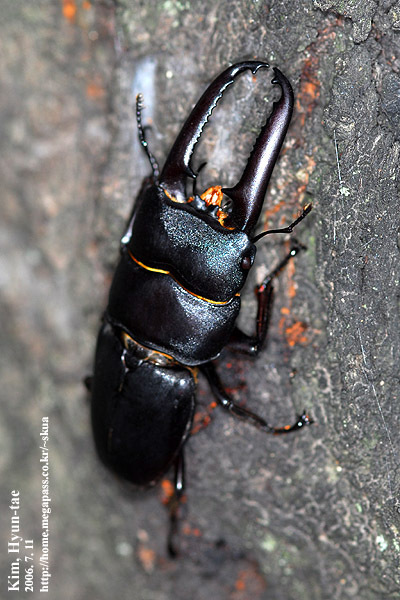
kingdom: Animalia
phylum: Arthropoda
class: Insecta
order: Coleoptera
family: Lucanidae
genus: Serrognathus
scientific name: Serrognathus titanus
